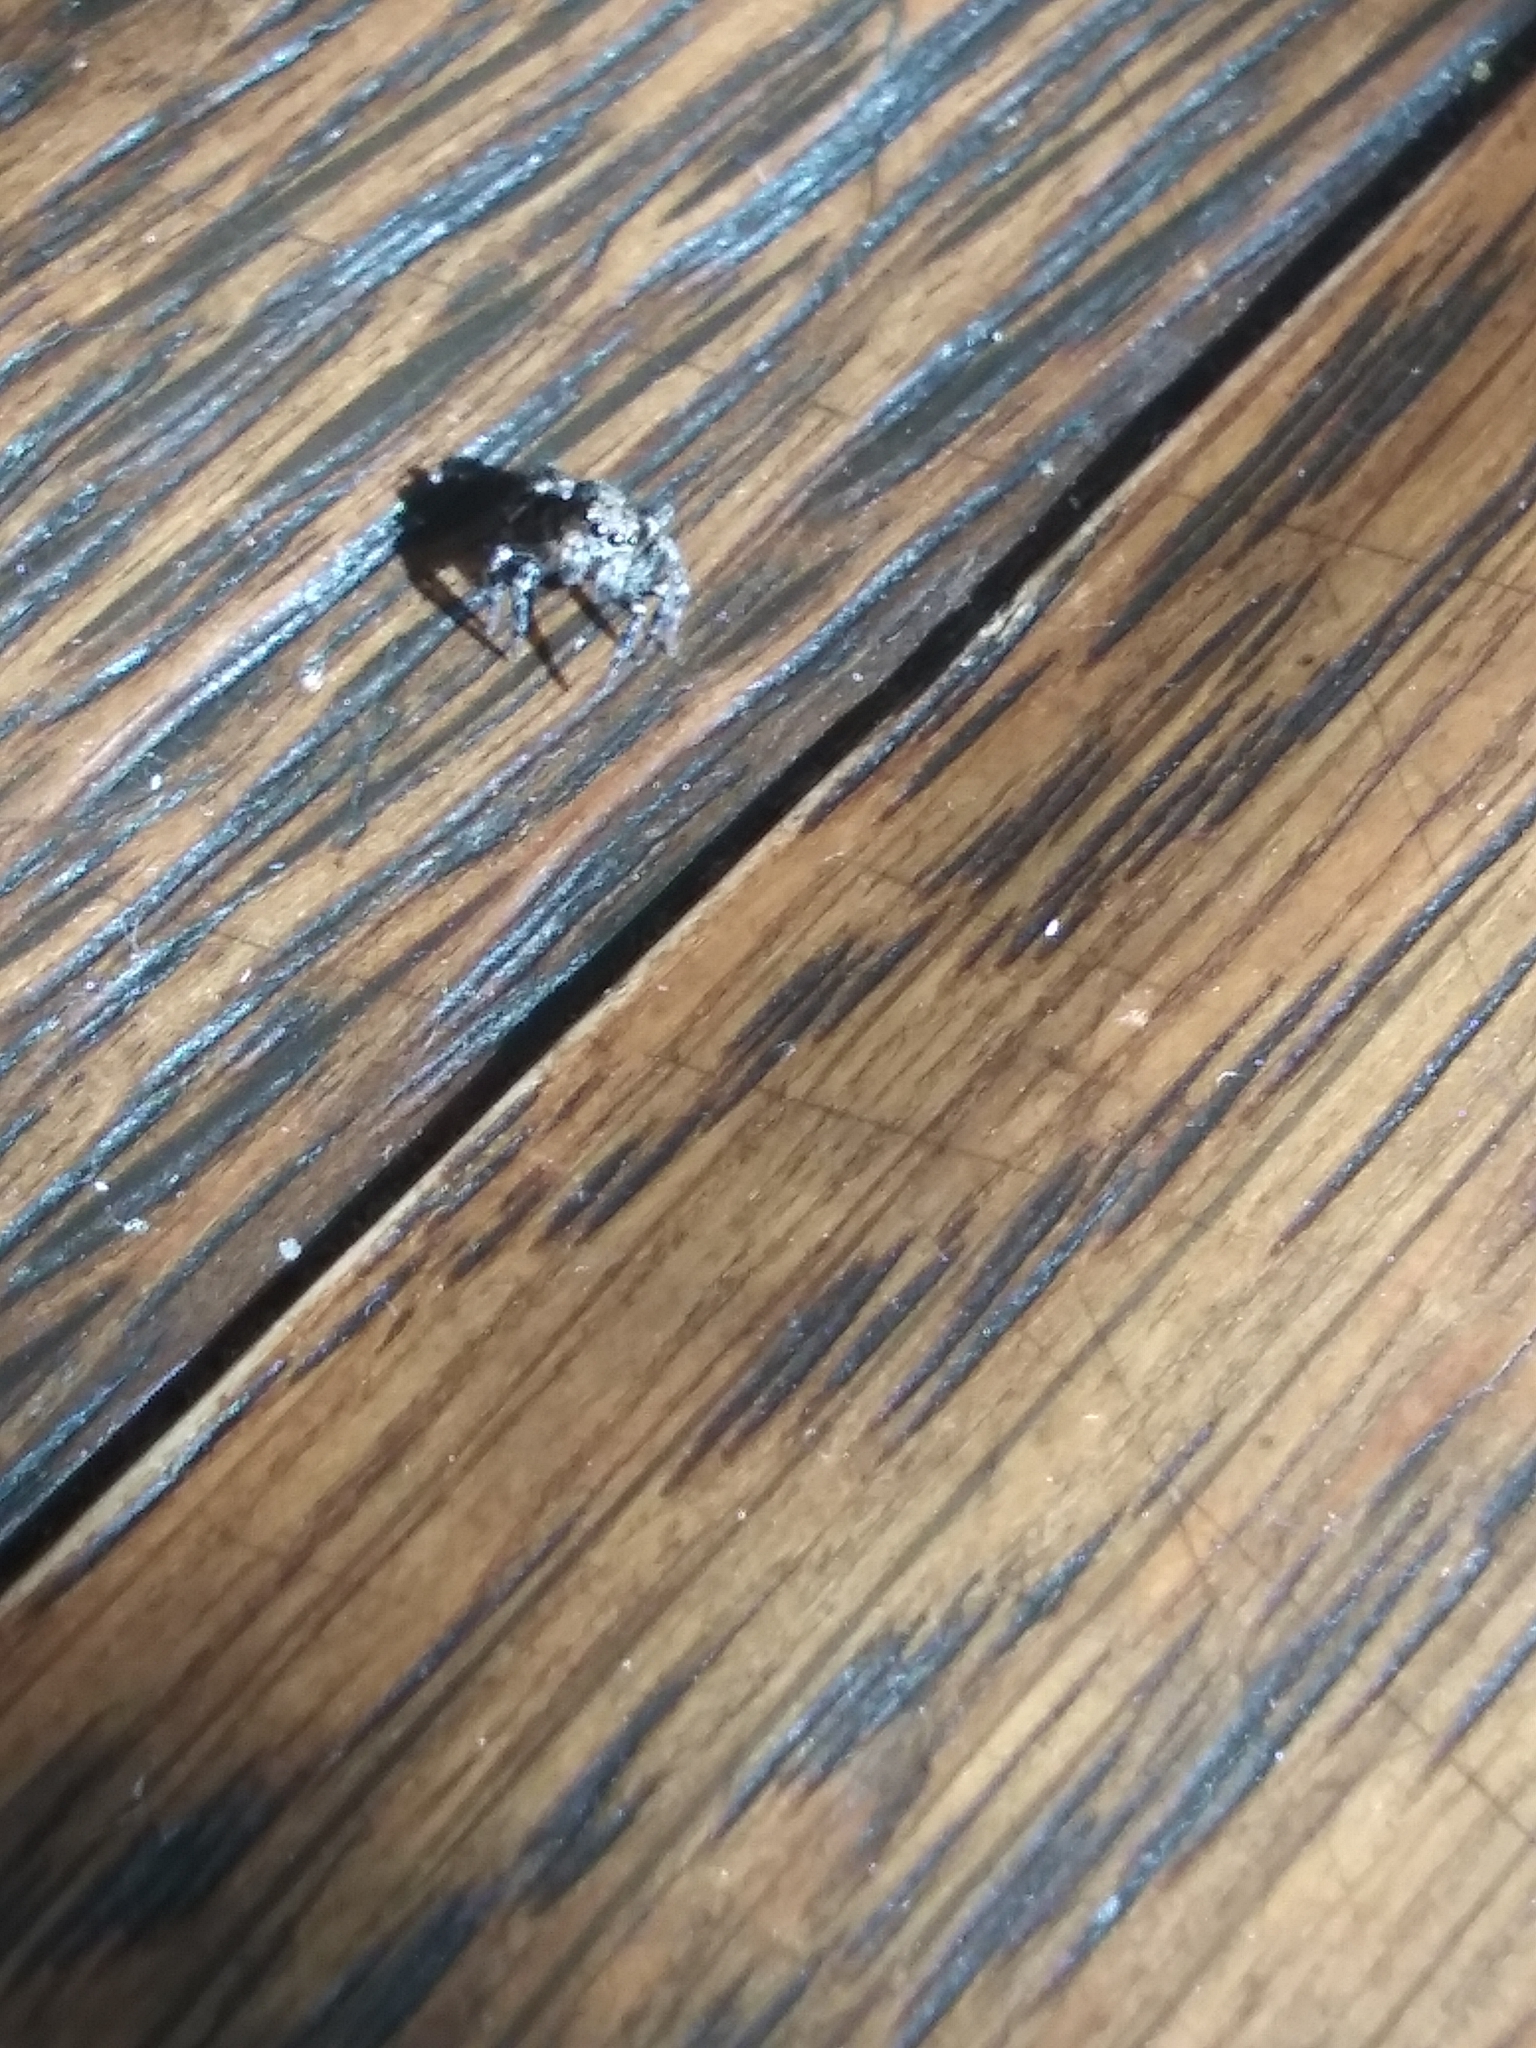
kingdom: Animalia
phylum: Arthropoda
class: Arachnida
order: Araneae
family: Salticidae
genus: Naphrys
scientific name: Naphrys pulex
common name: Flea jumping spider
